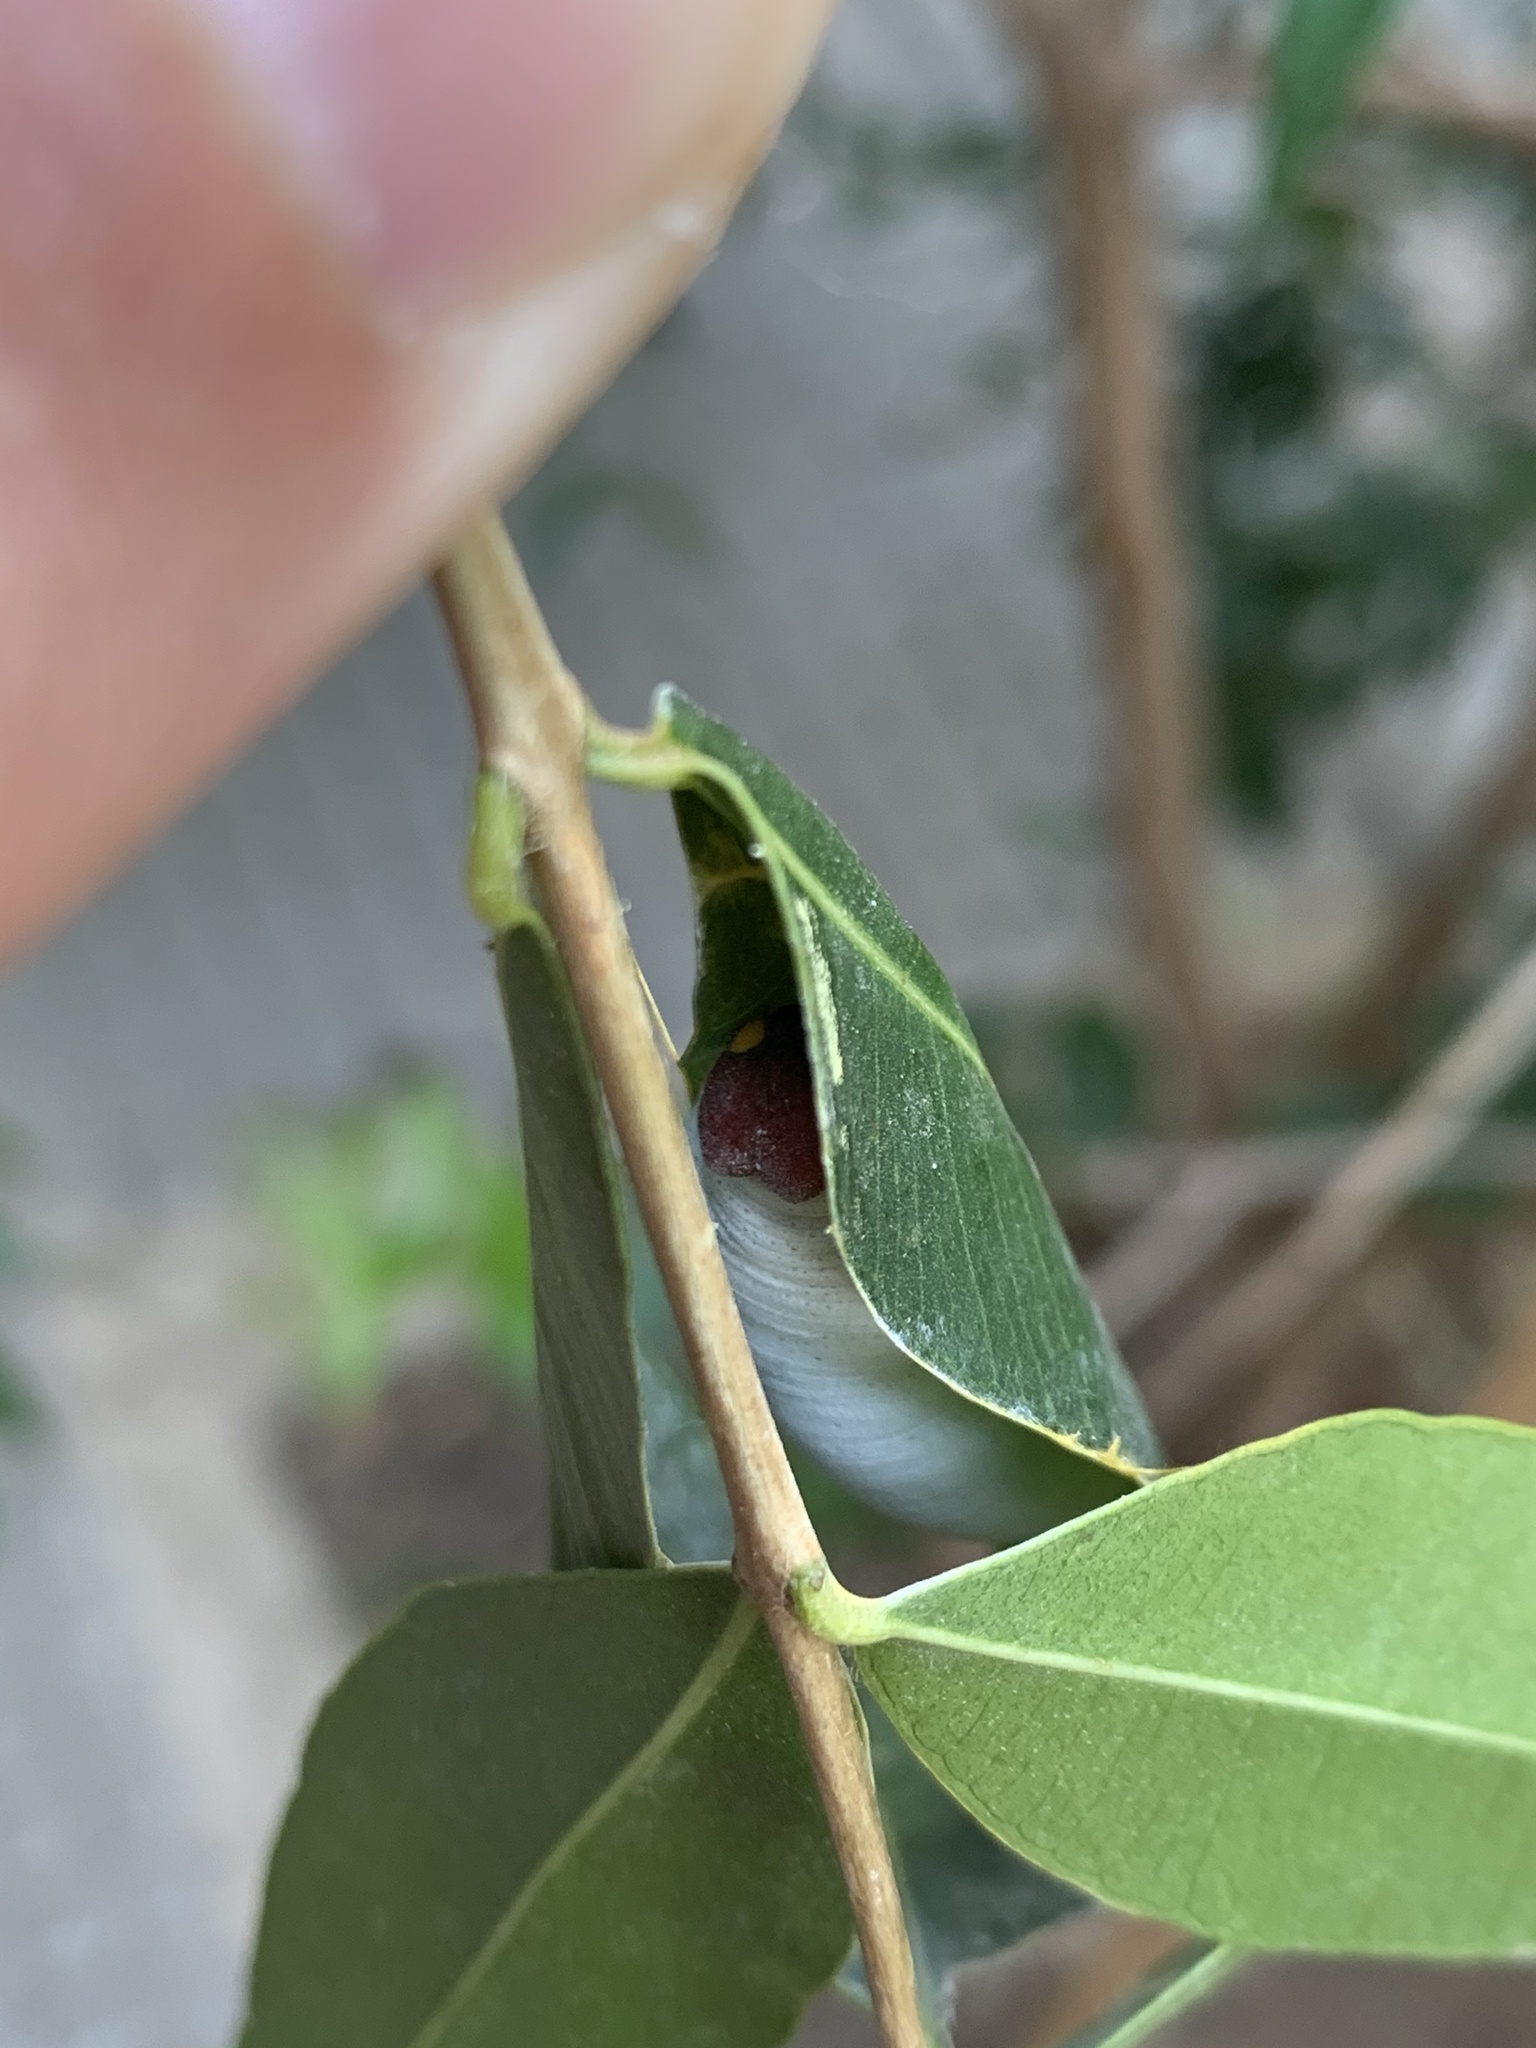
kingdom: Animalia
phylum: Arthropoda
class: Insecta
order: Lepidoptera
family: Hesperiidae
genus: Phocides
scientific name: Phocides polybius
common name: Guava skipper
